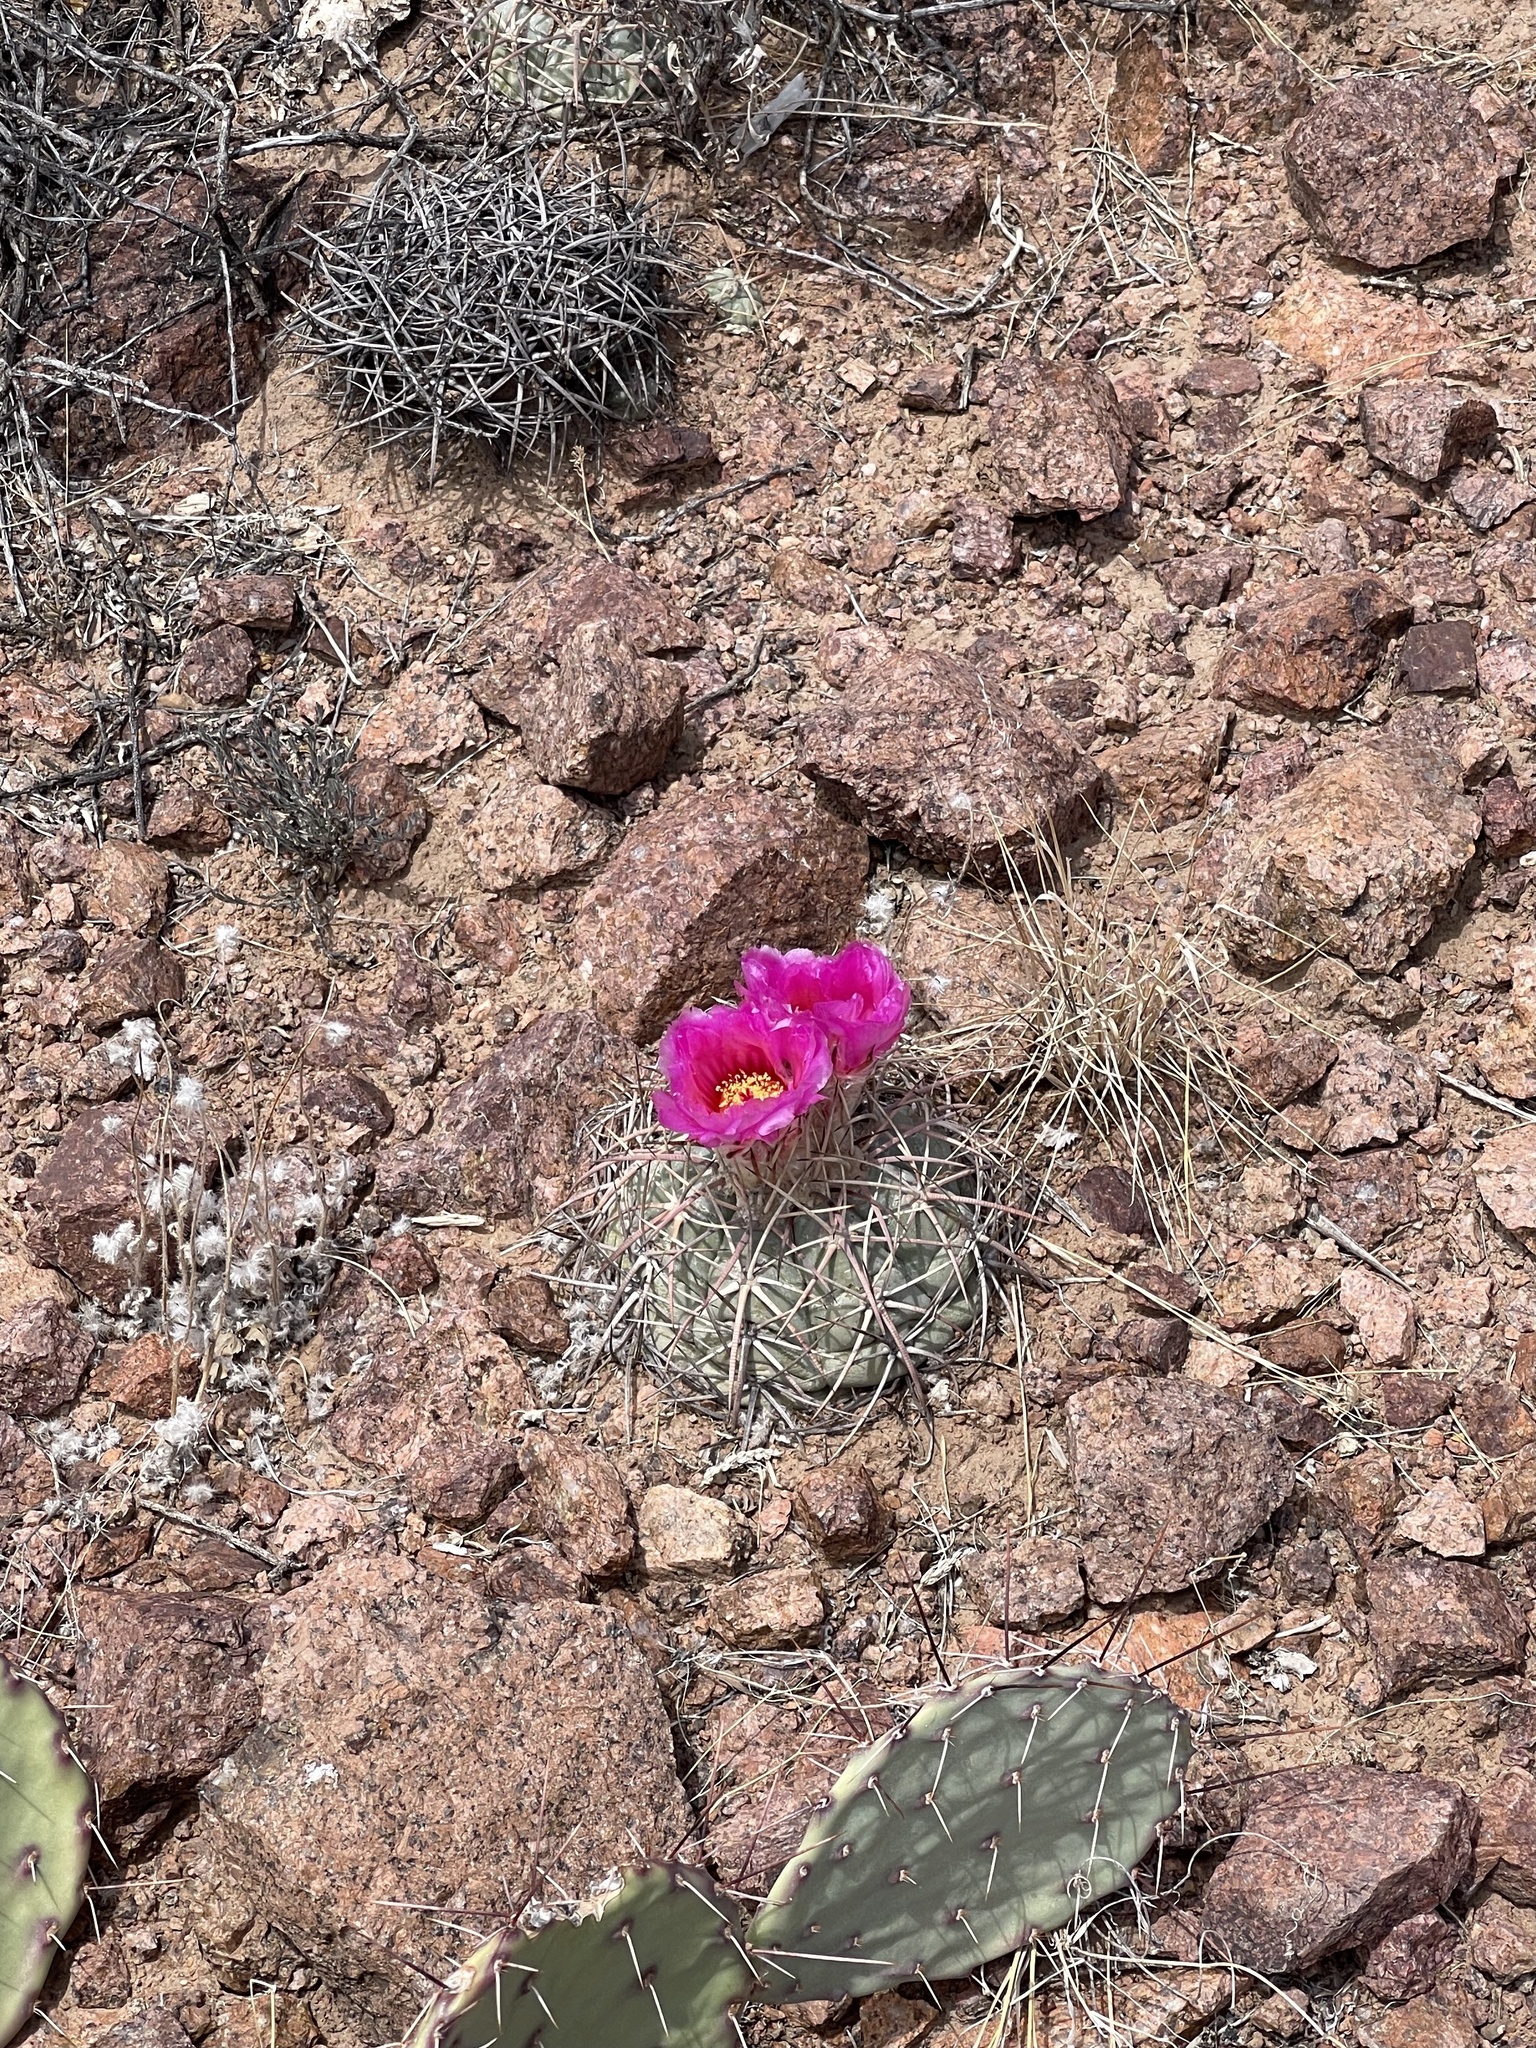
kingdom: Plantae
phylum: Tracheophyta
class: Magnoliopsida
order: Caryophyllales
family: Cactaceae
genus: Echinocactus
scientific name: Echinocactus horizonthalonius
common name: Devilshead
